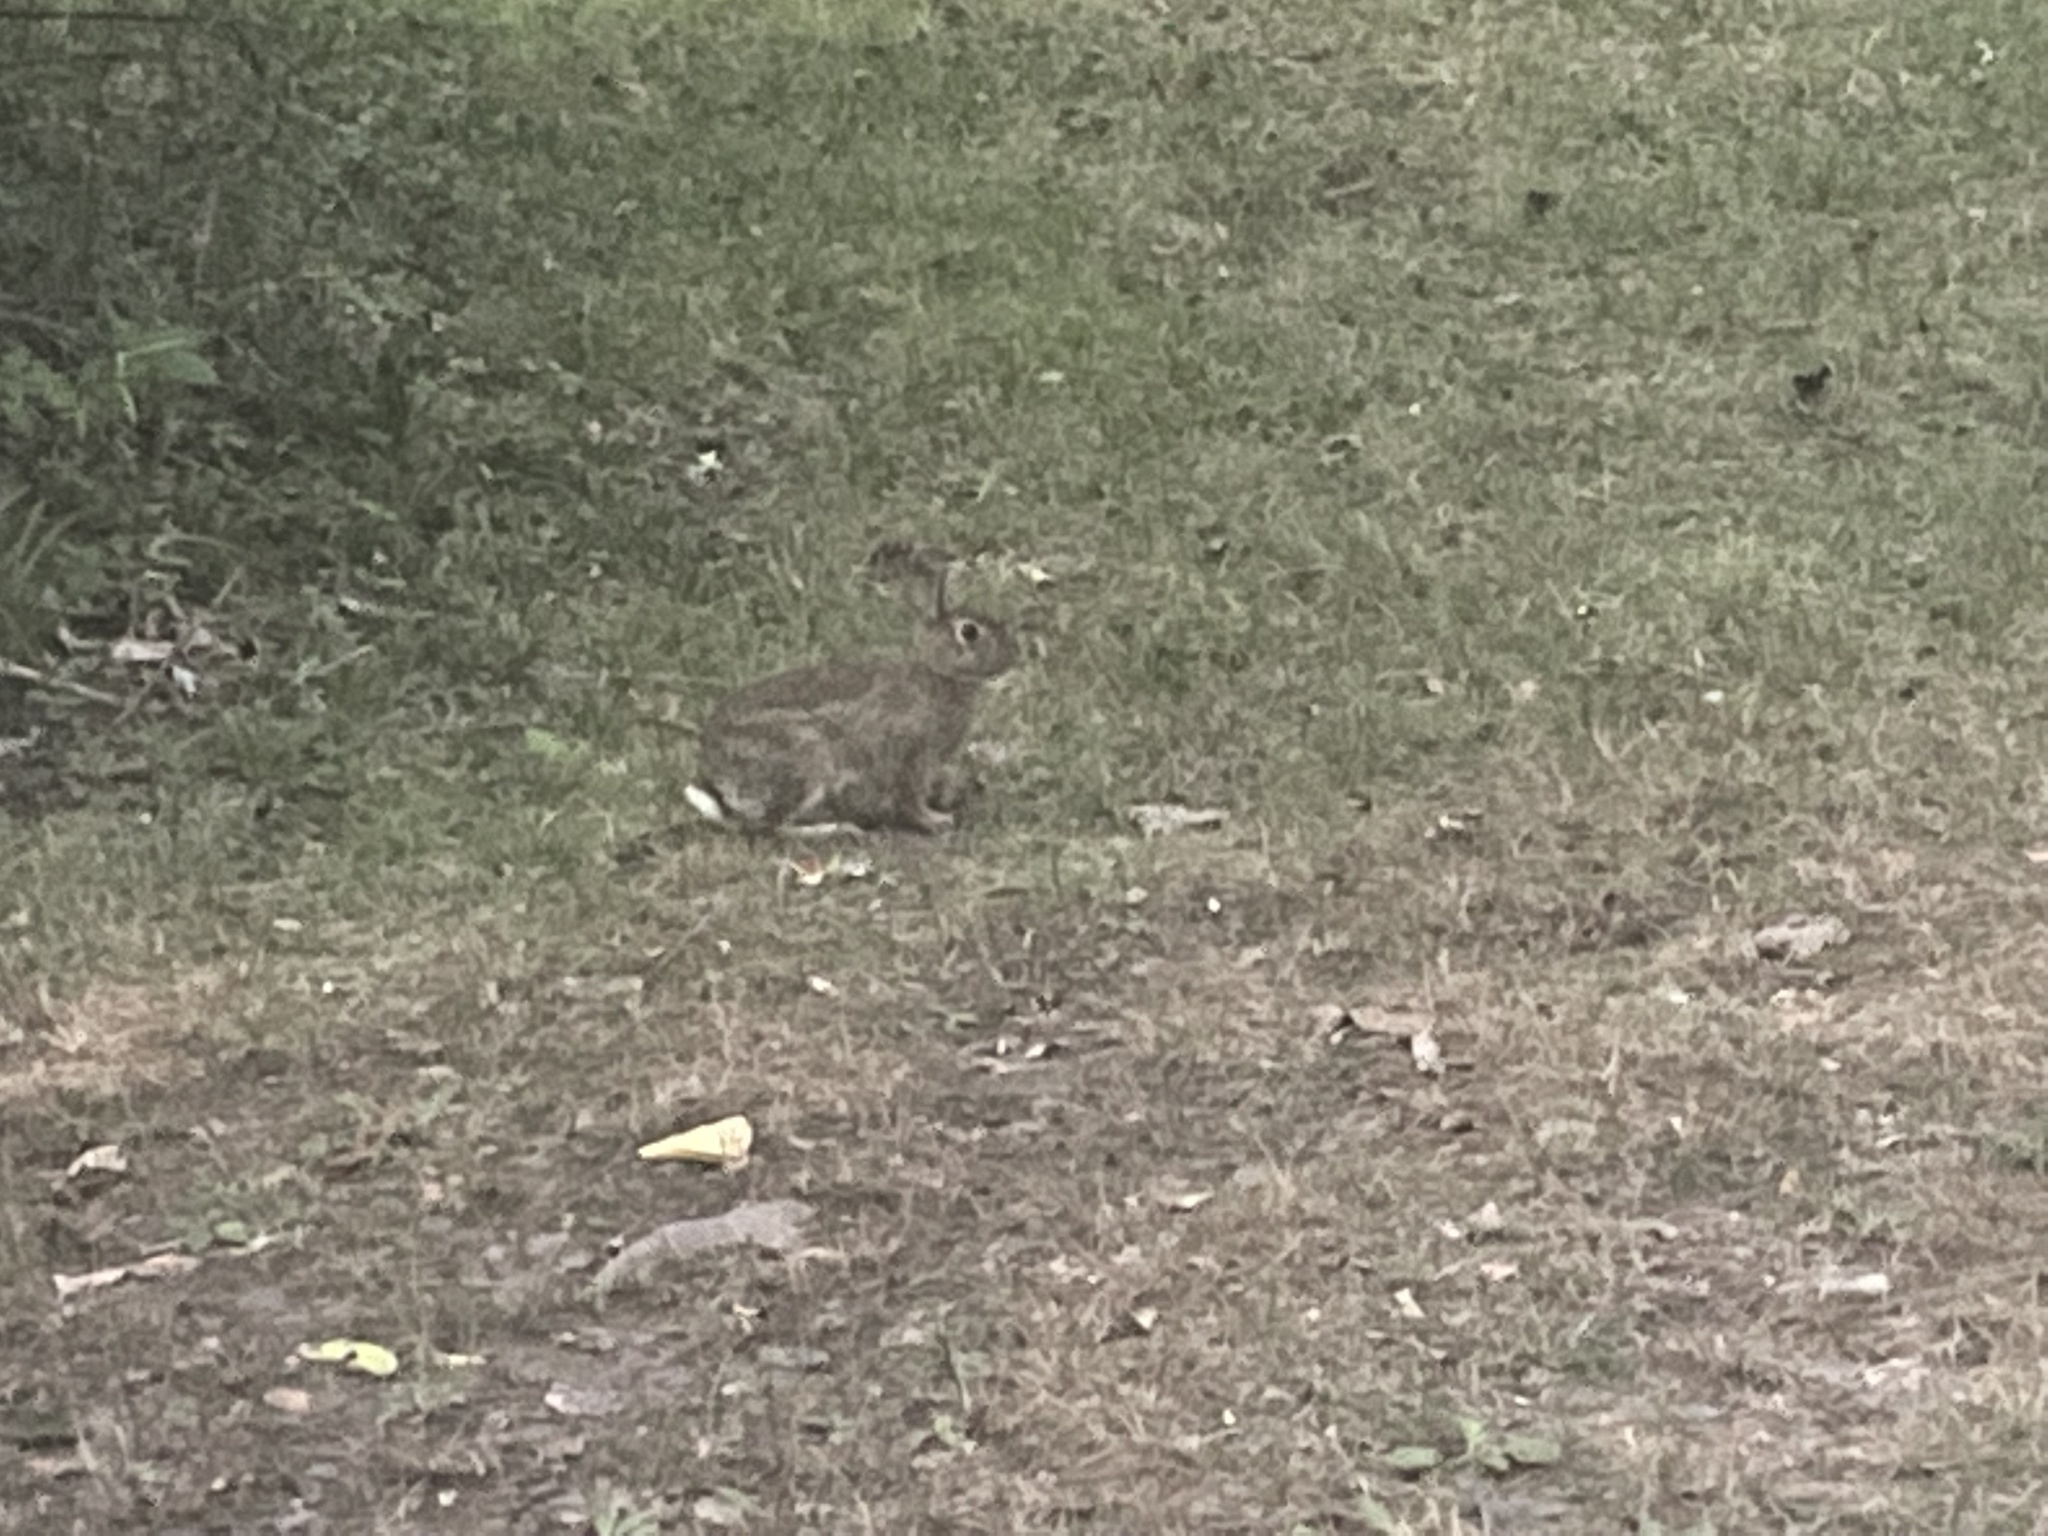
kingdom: Animalia
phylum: Chordata
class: Mammalia
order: Lagomorpha
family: Leporidae
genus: Sylvilagus
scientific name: Sylvilagus floridanus
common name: Eastern cottontail
